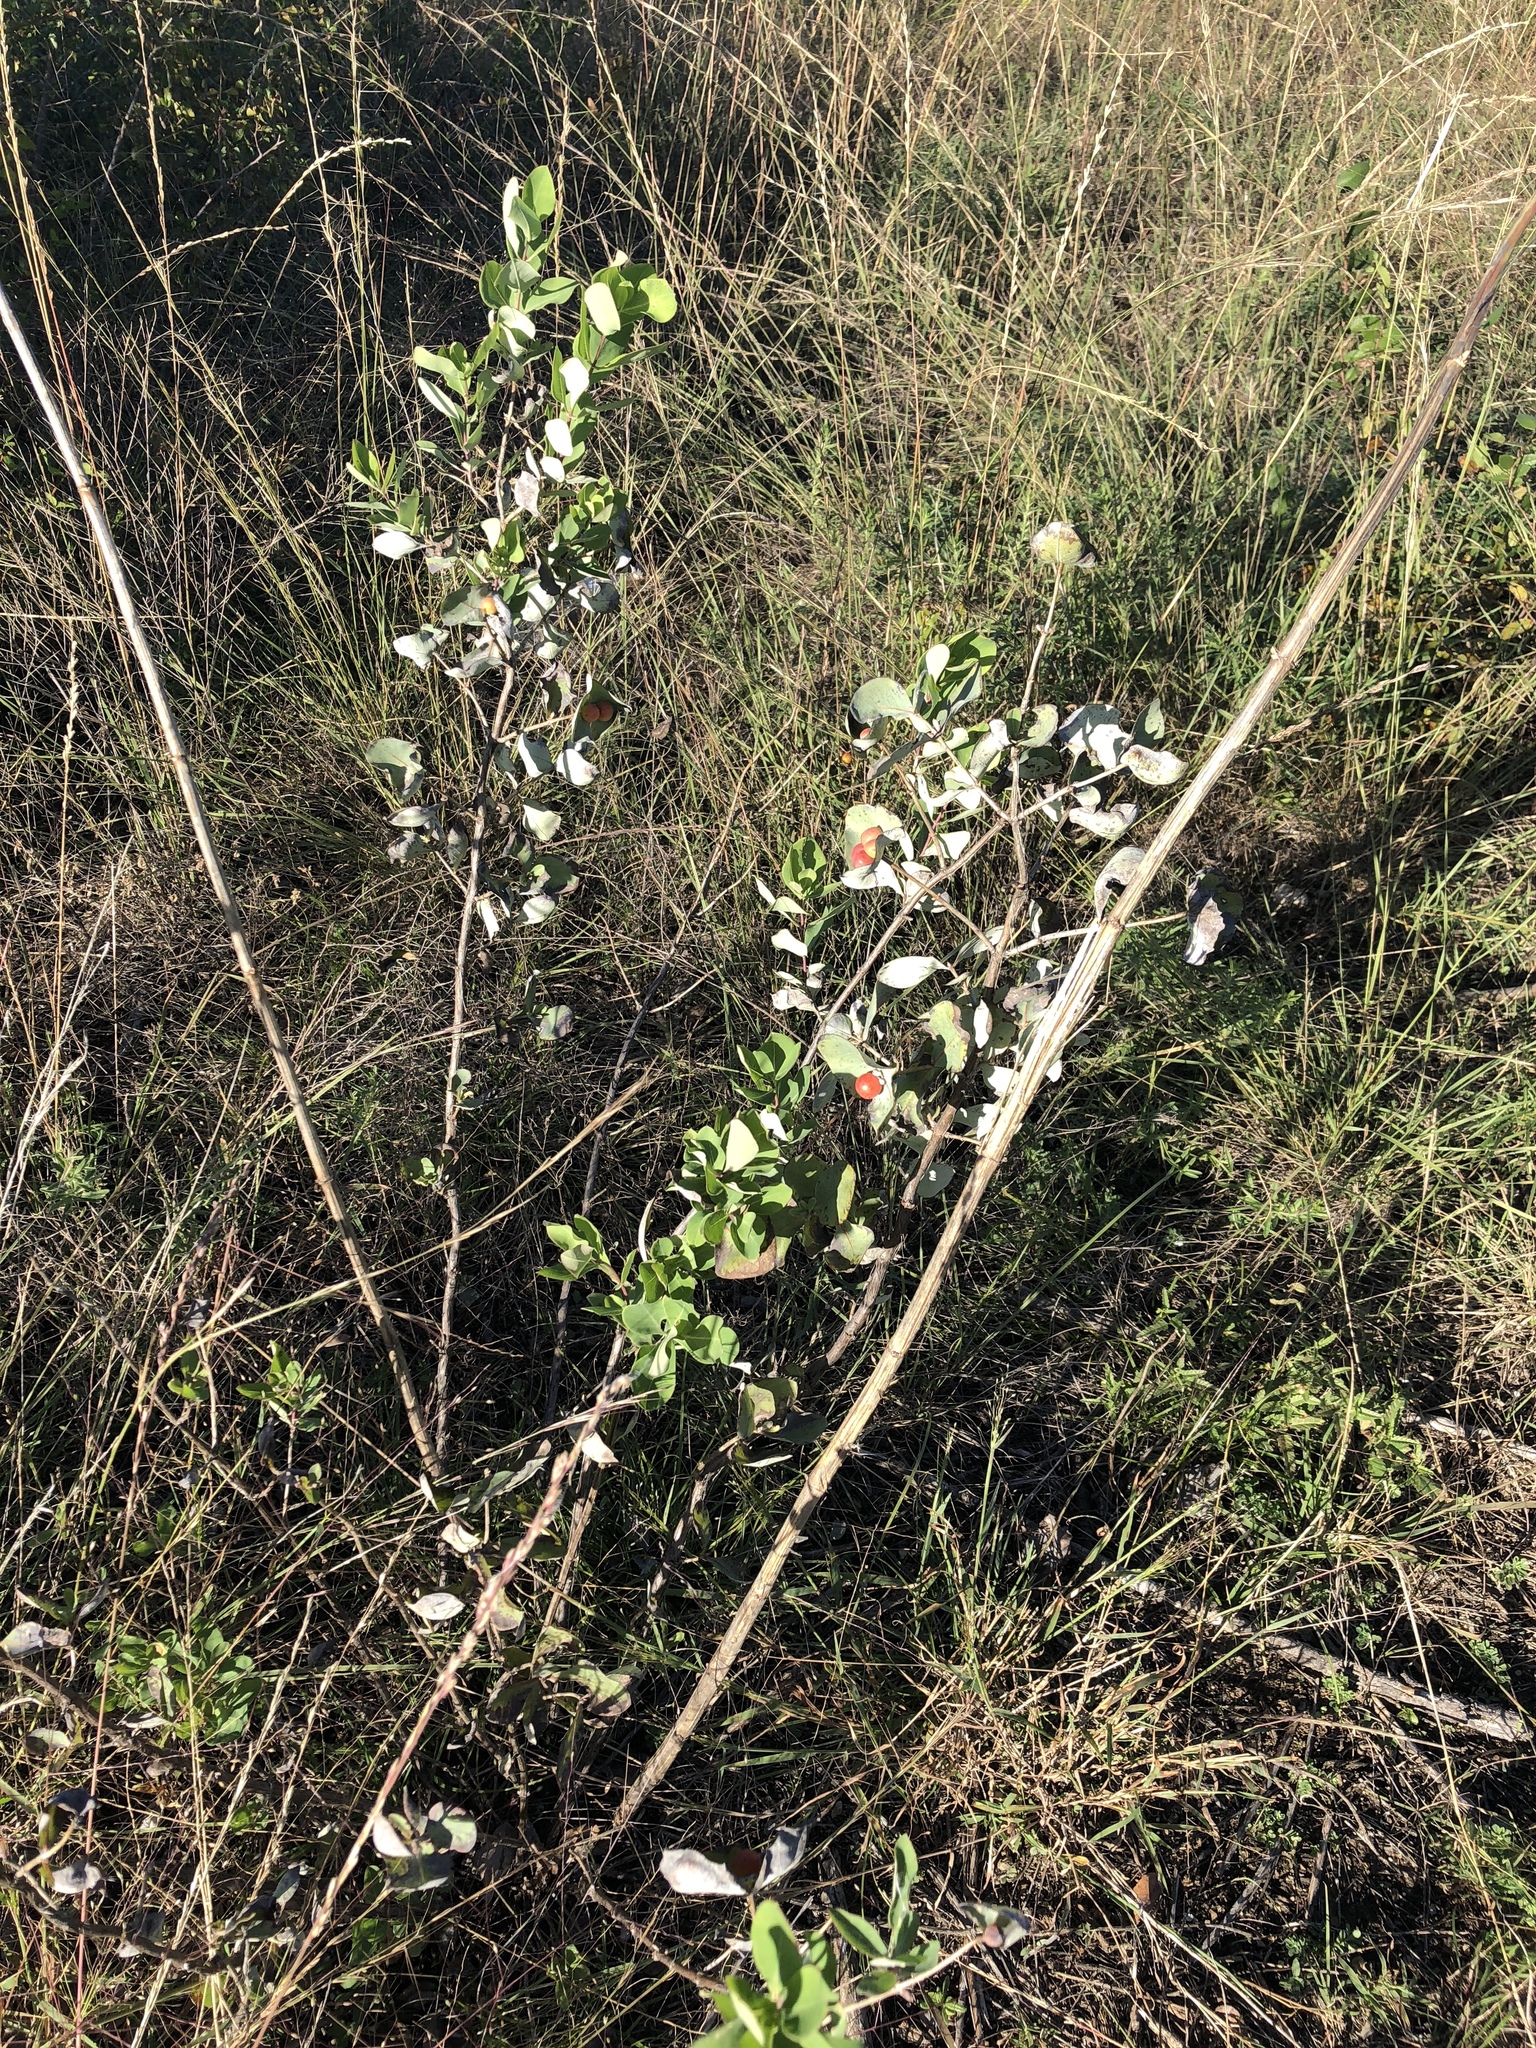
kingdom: Plantae
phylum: Tracheophyta
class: Magnoliopsida
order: Dipsacales
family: Caprifoliaceae
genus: Lonicera
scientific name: Lonicera albiflora
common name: White honeysuckle
